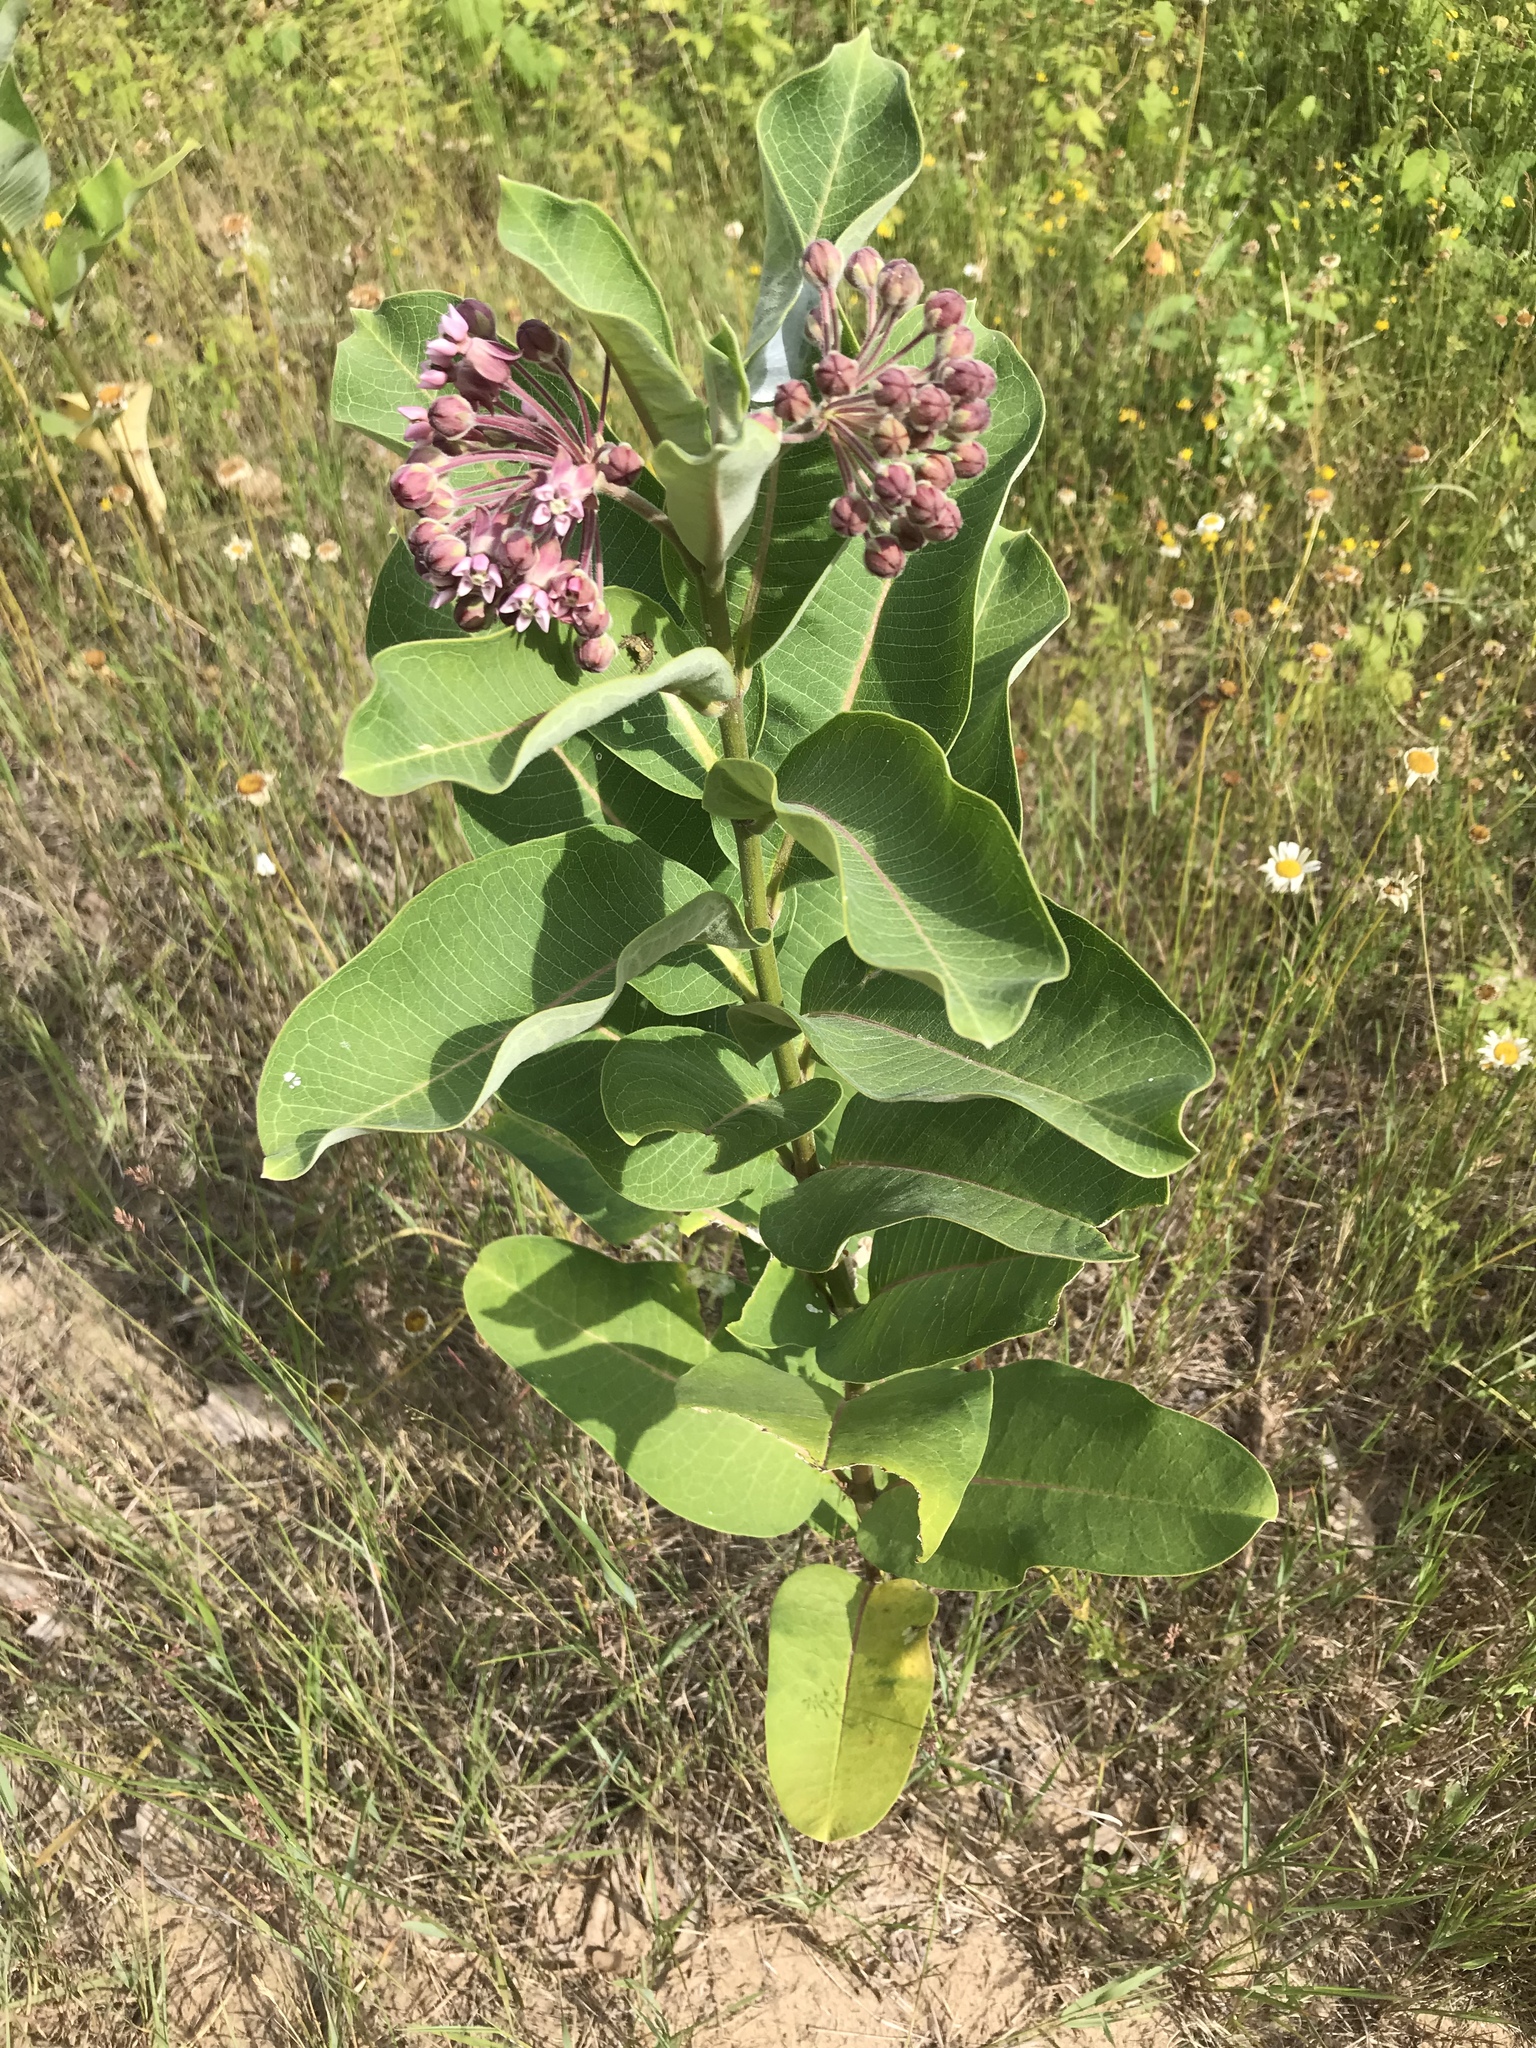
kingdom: Plantae
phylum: Tracheophyta
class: Magnoliopsida
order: Gentianales
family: Apocynaceae
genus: Asclepias
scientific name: Asclepias syriaca
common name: Common milkweed
